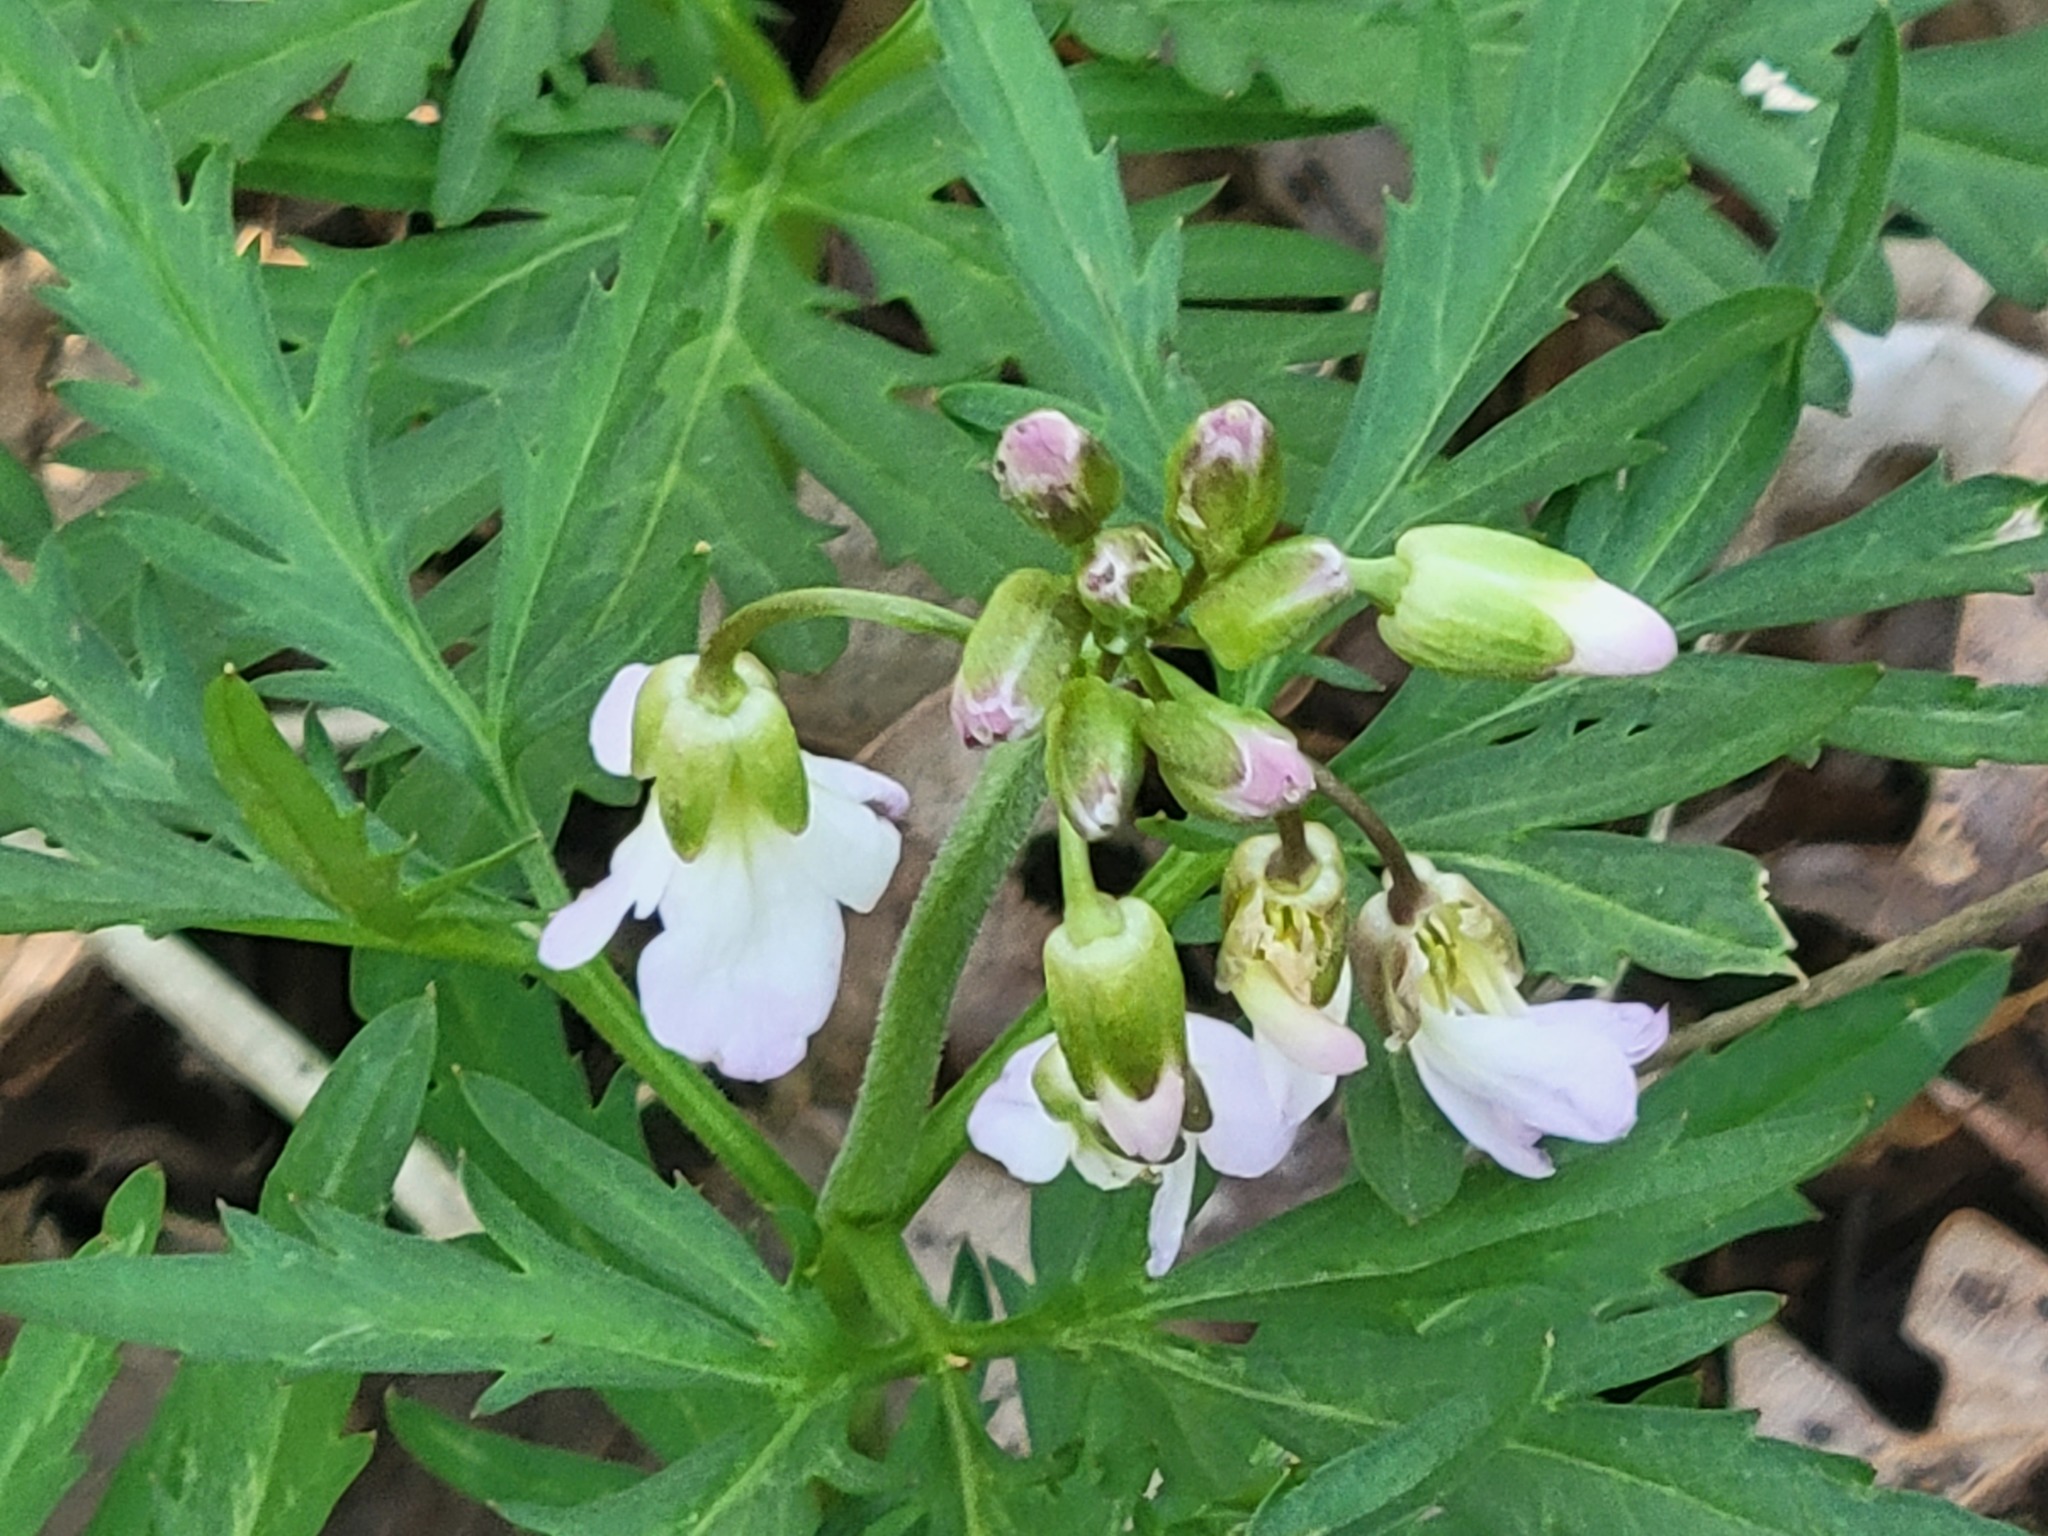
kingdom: Plantae
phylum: Tracheophyta
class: Magnoliopsida
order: Brassicales
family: Brassicaceae
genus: Cardamine
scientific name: Cardamine concatenata
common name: Cut-leaf toothcup
